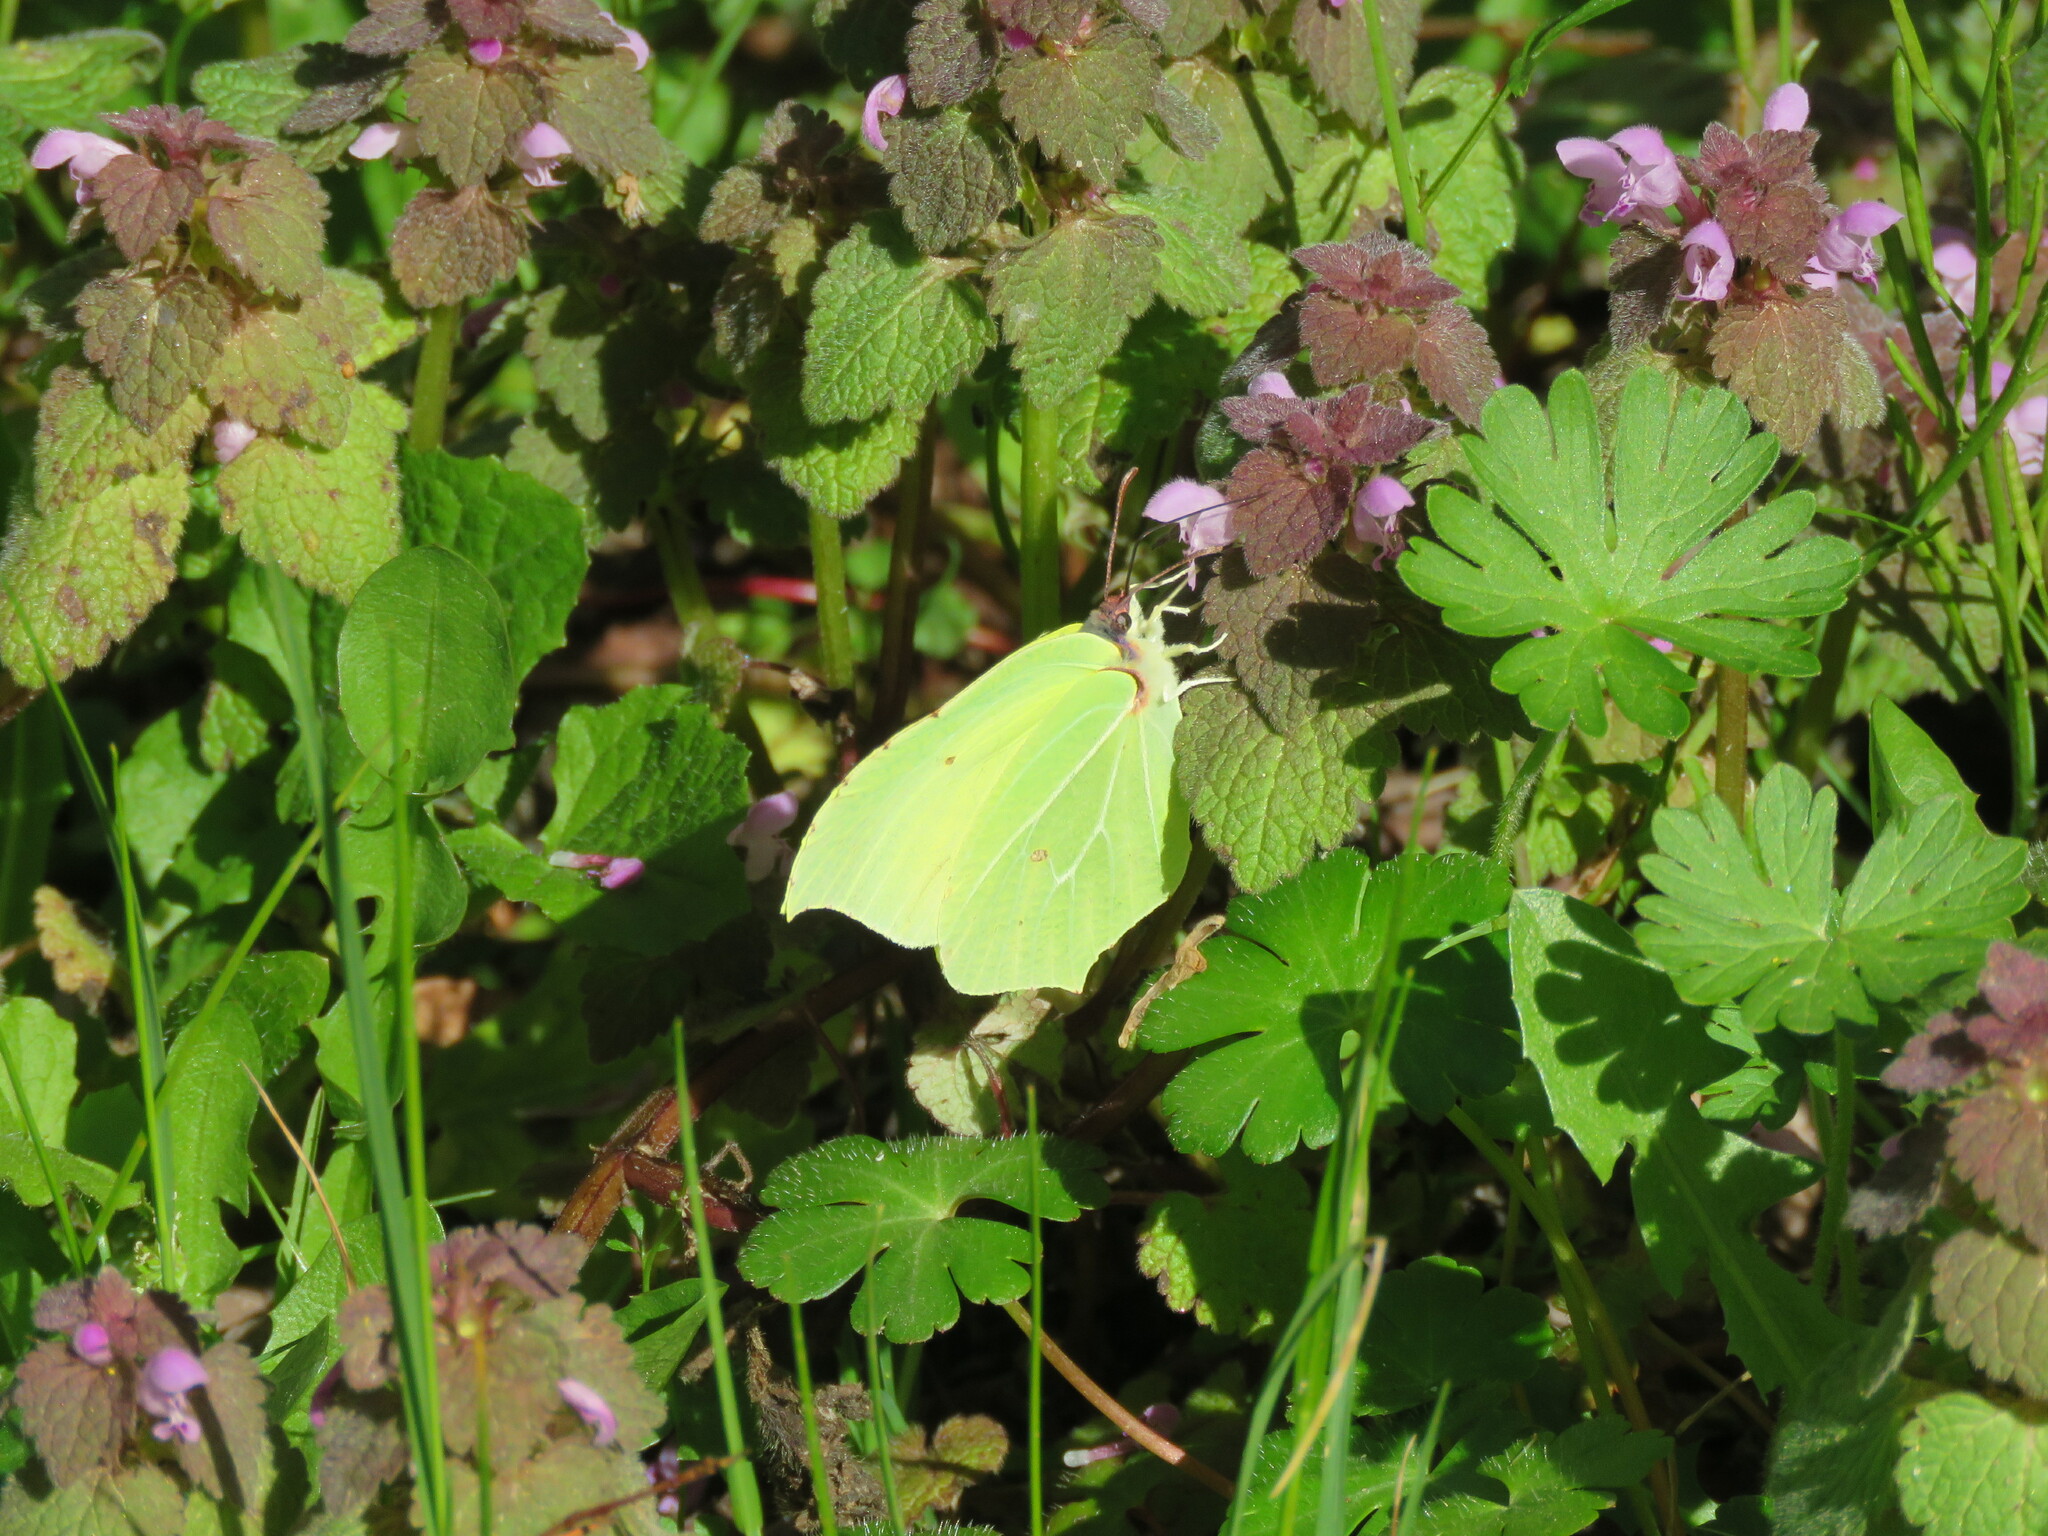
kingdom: Animalia
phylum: Arthropoda
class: Insecta
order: Lepidoptera
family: Pieridae
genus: Gonepteryx
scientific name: Gonepteryx cleopatra
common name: Cleopatra
